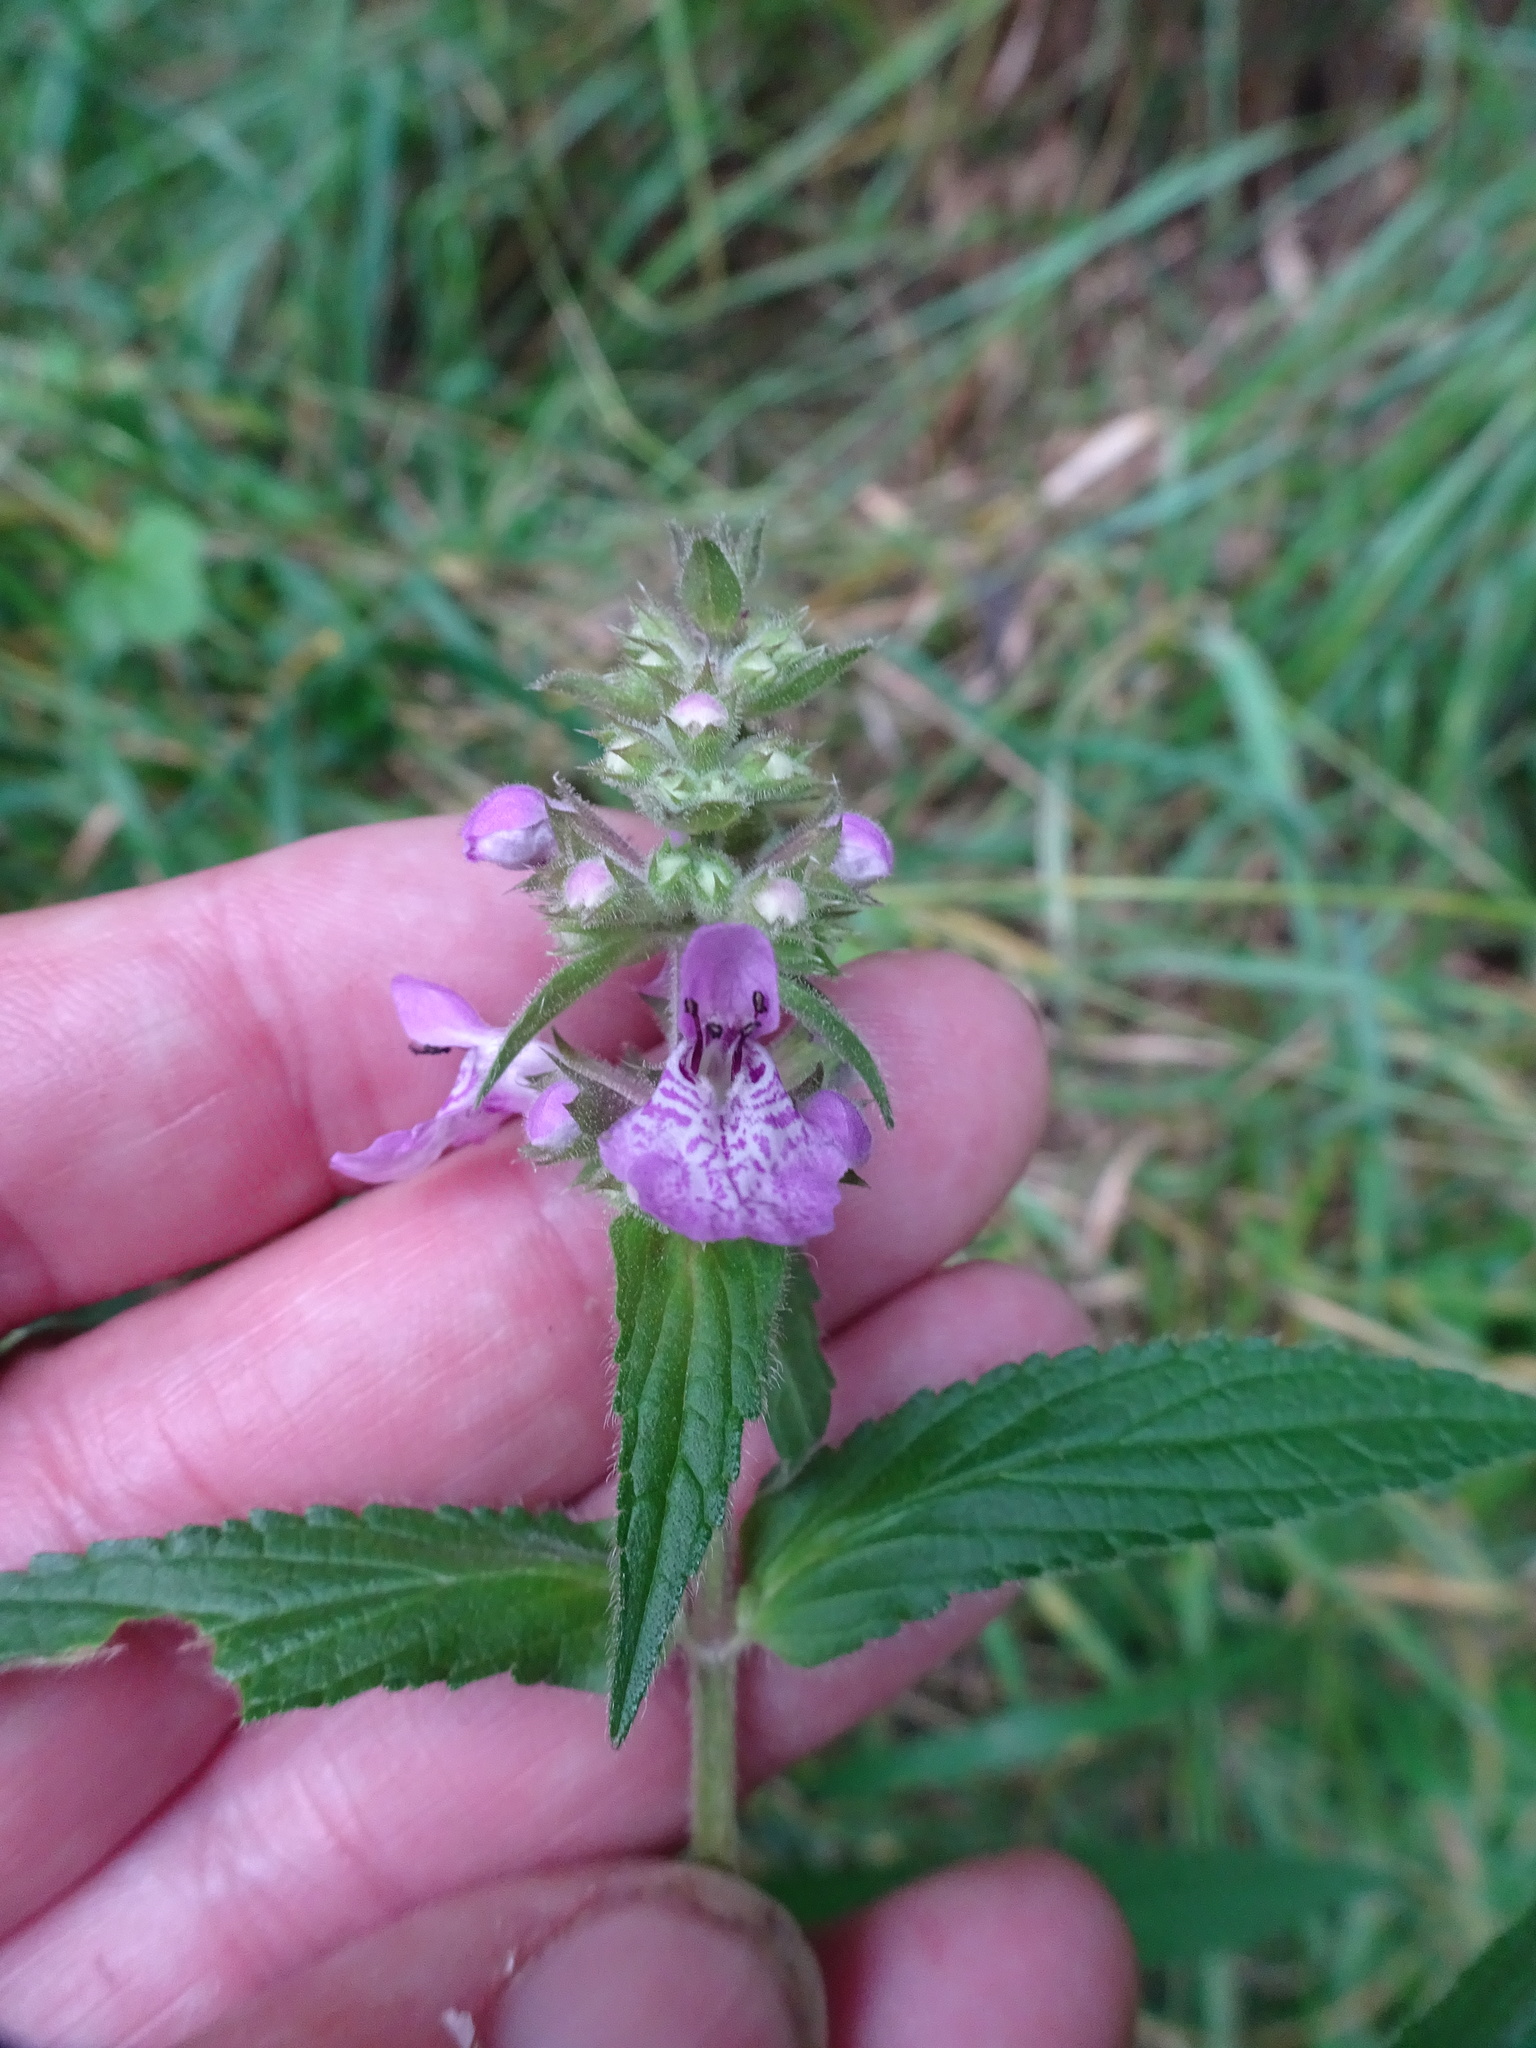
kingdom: Plantae
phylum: Tracheophyta
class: Magnoliopsida
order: Lamiales
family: Lamiaceae
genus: Stachys
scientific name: Stachys palustris
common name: Marsh woundwort
